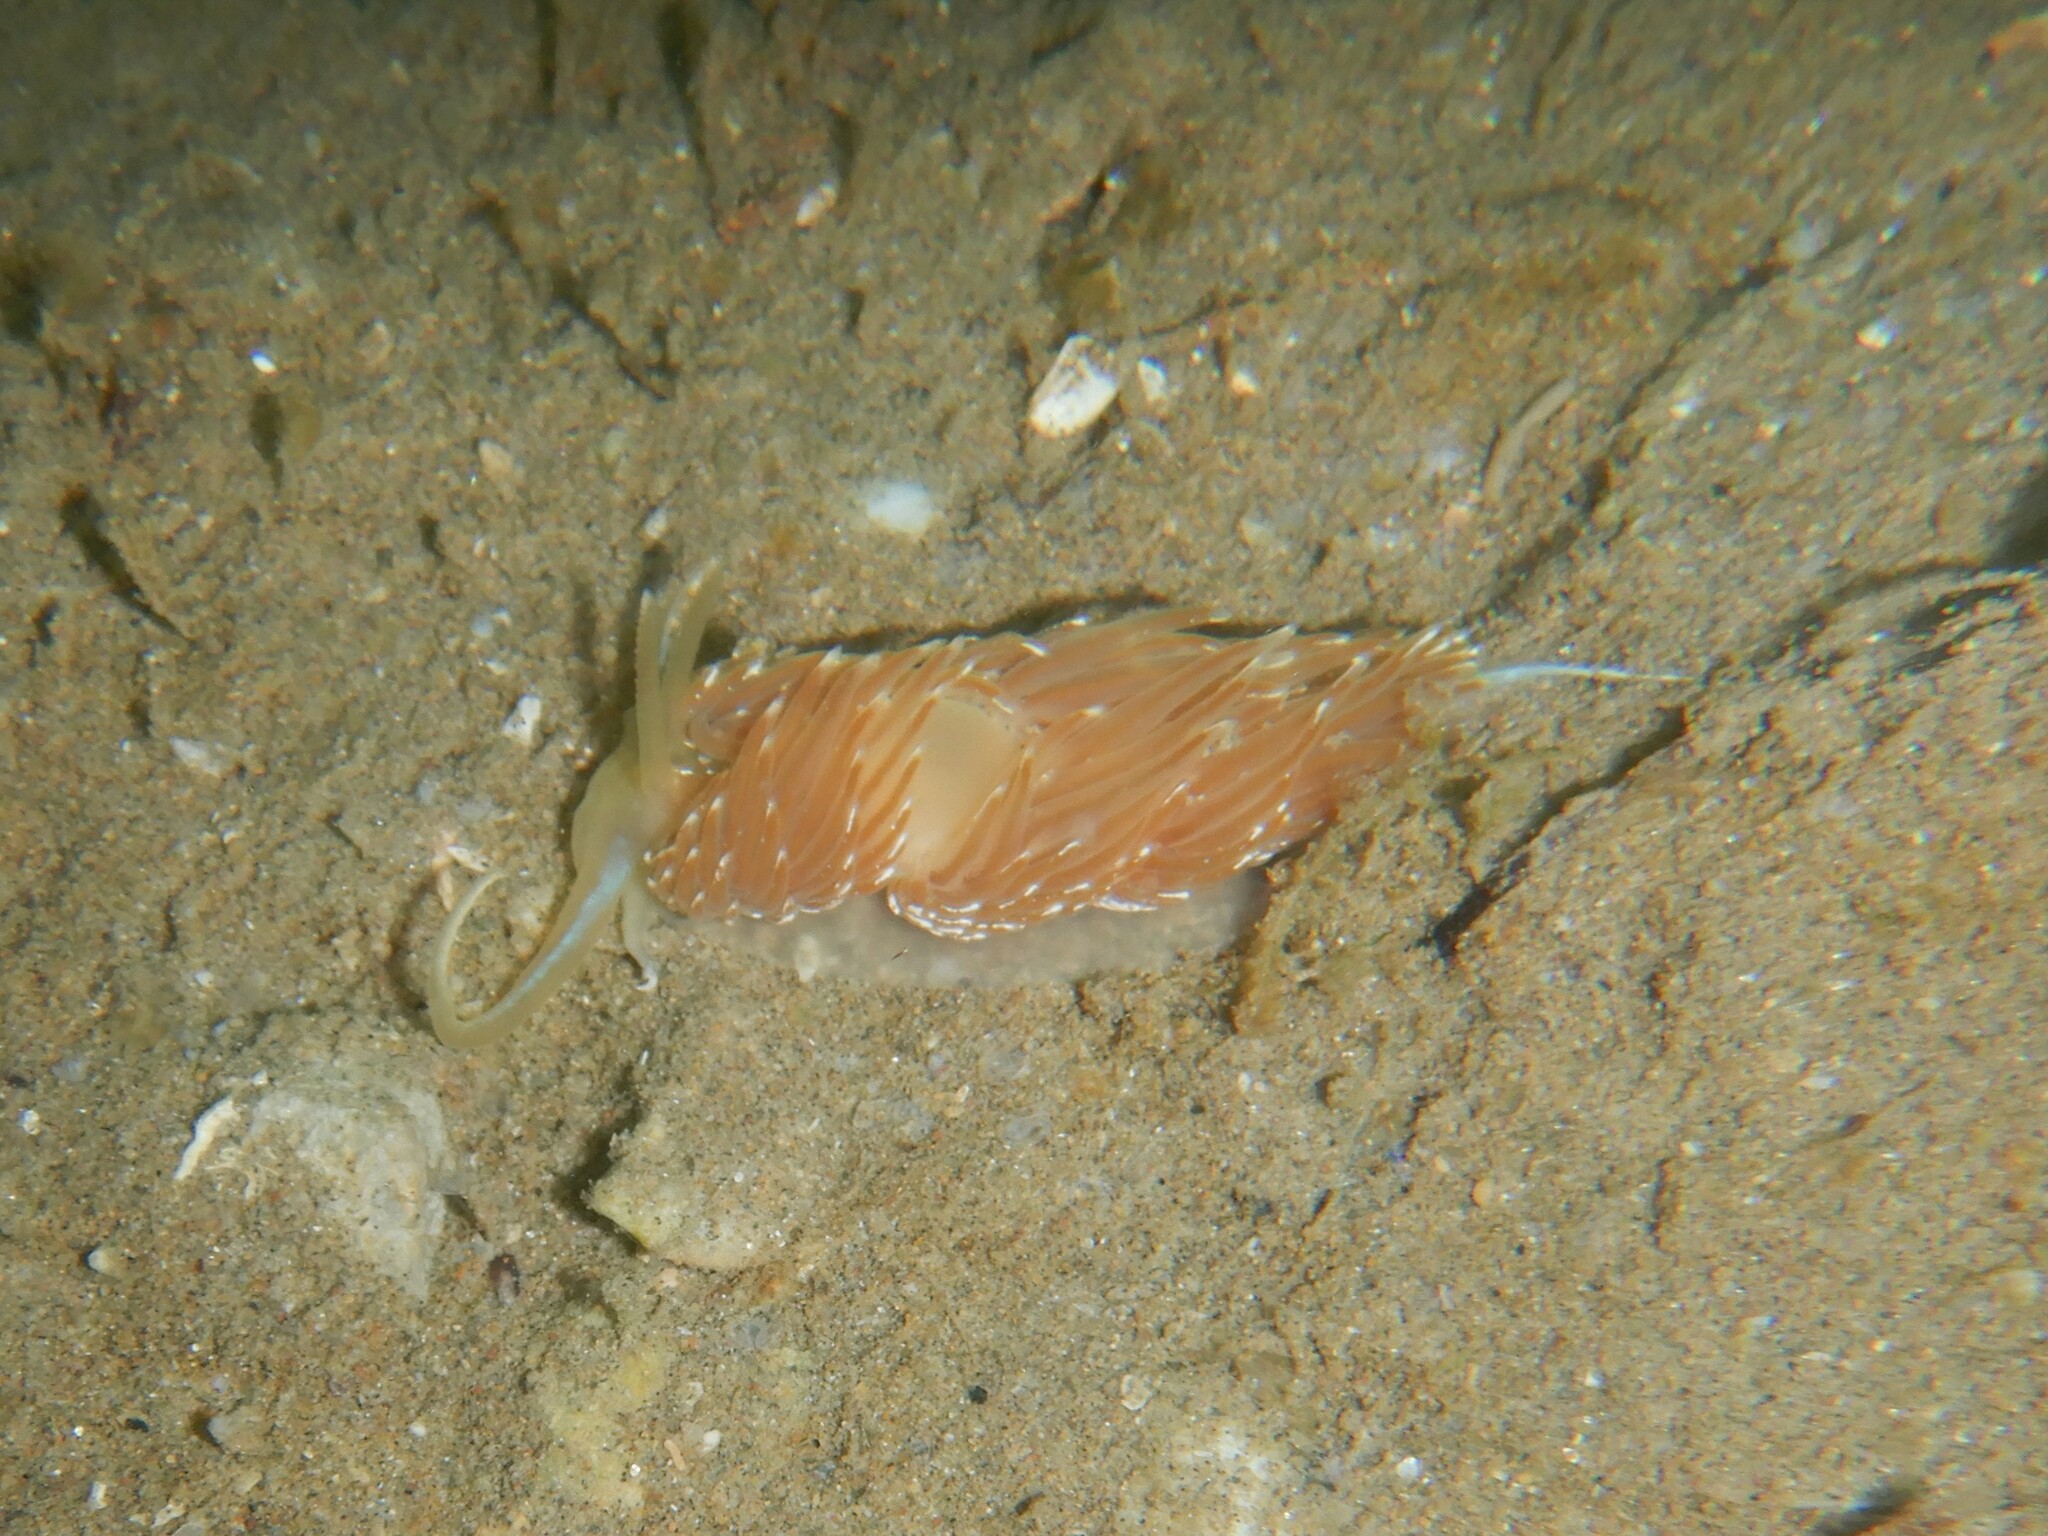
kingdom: Animalia
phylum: Mollusca
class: Gastropoda
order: Nudibranchia
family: Facelinidae
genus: Facelina
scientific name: Facelina vicina
